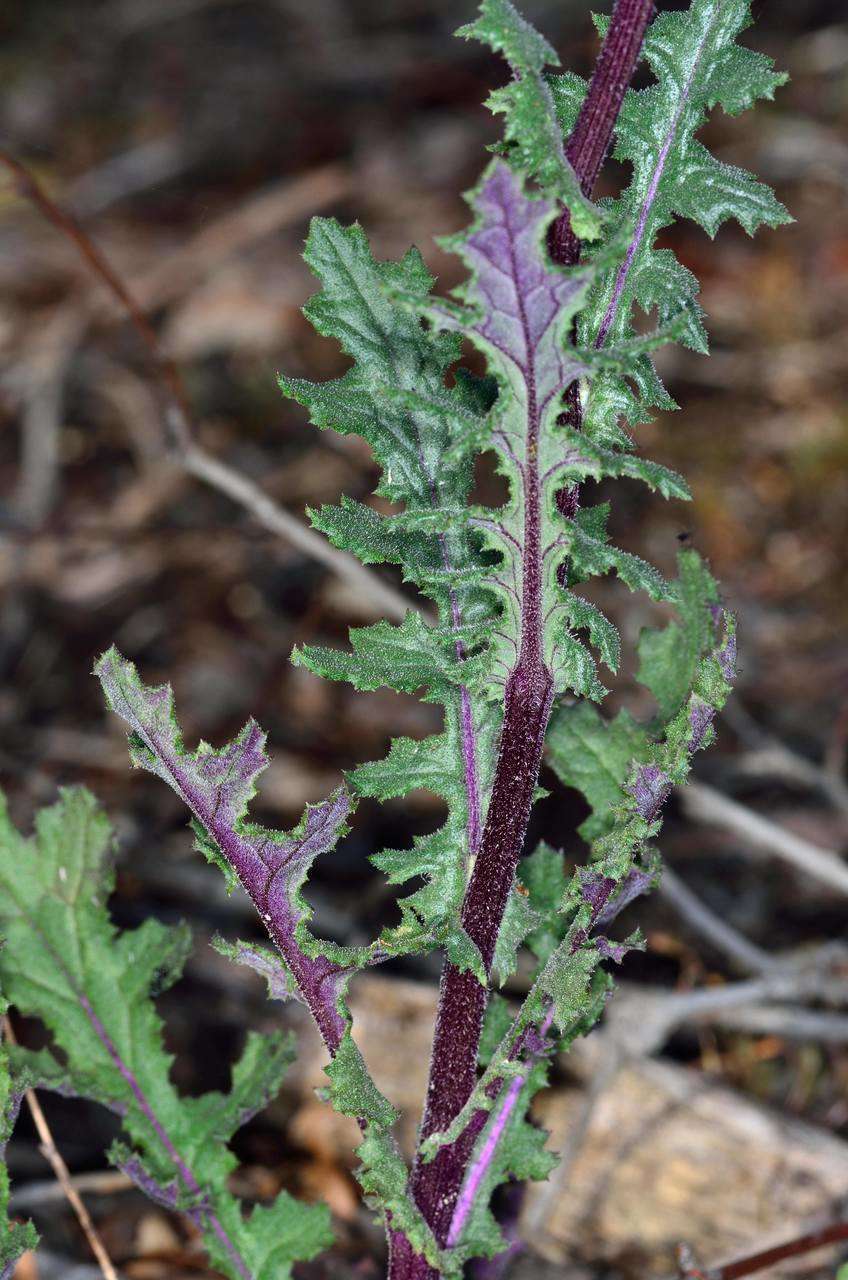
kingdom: Plantae
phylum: Tracheophyta
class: Magnoliopsida
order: Asterales
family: Asteraceae
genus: Senecio
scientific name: Senecio picridioides
